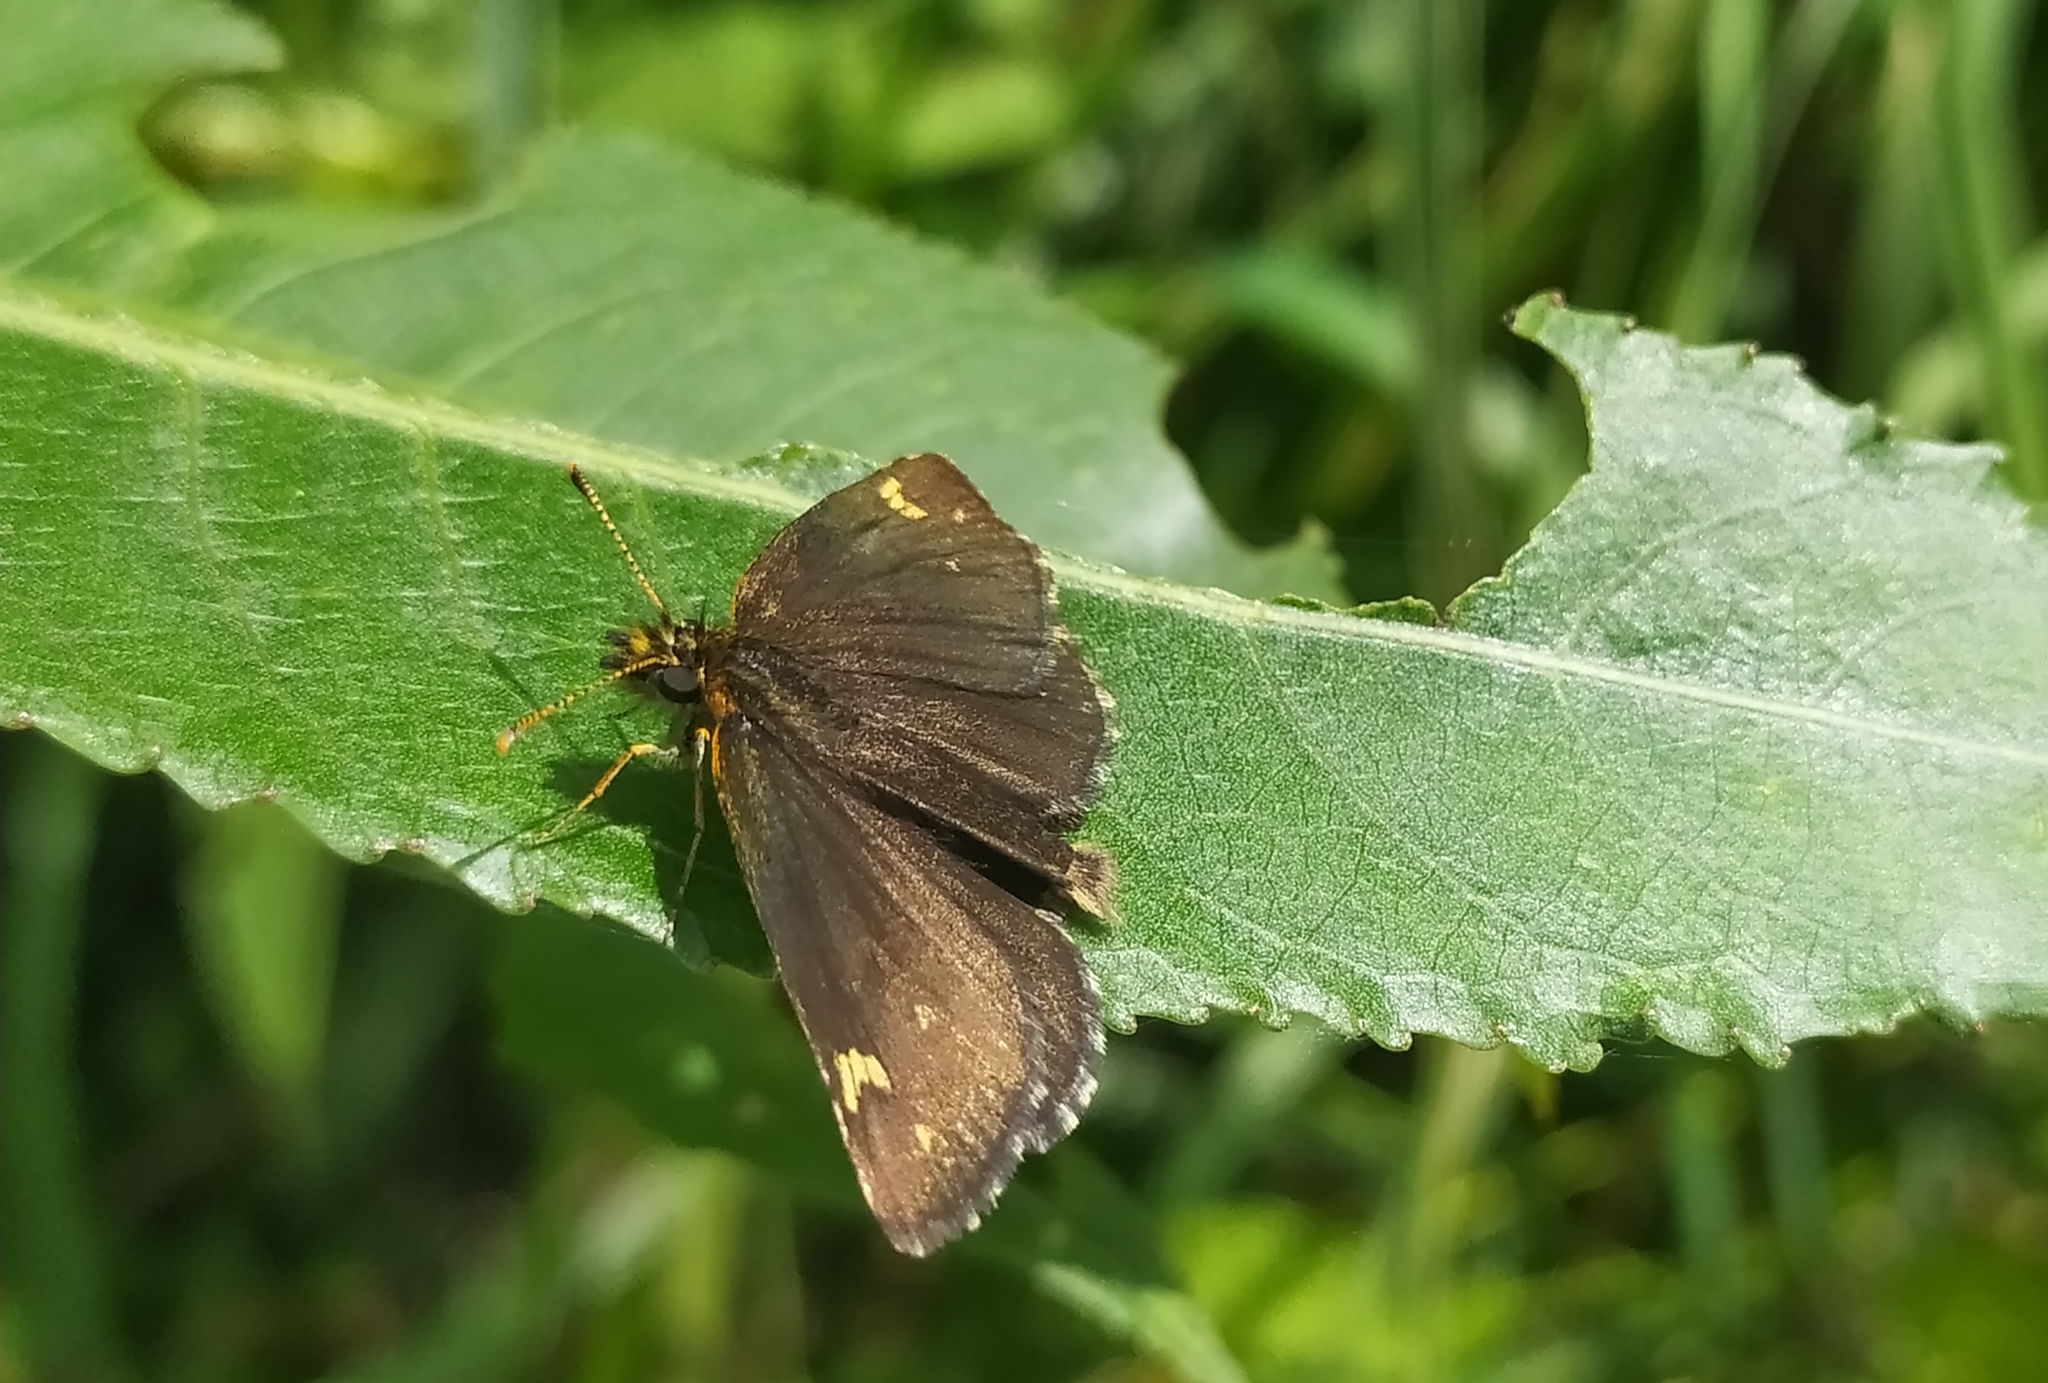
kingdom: Animalia
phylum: Arthropoda
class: Insecta
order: Lepidoptera
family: Hesperiidae
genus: Heteropterus
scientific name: Heteropterus morpheus
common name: Large chequered skipper
